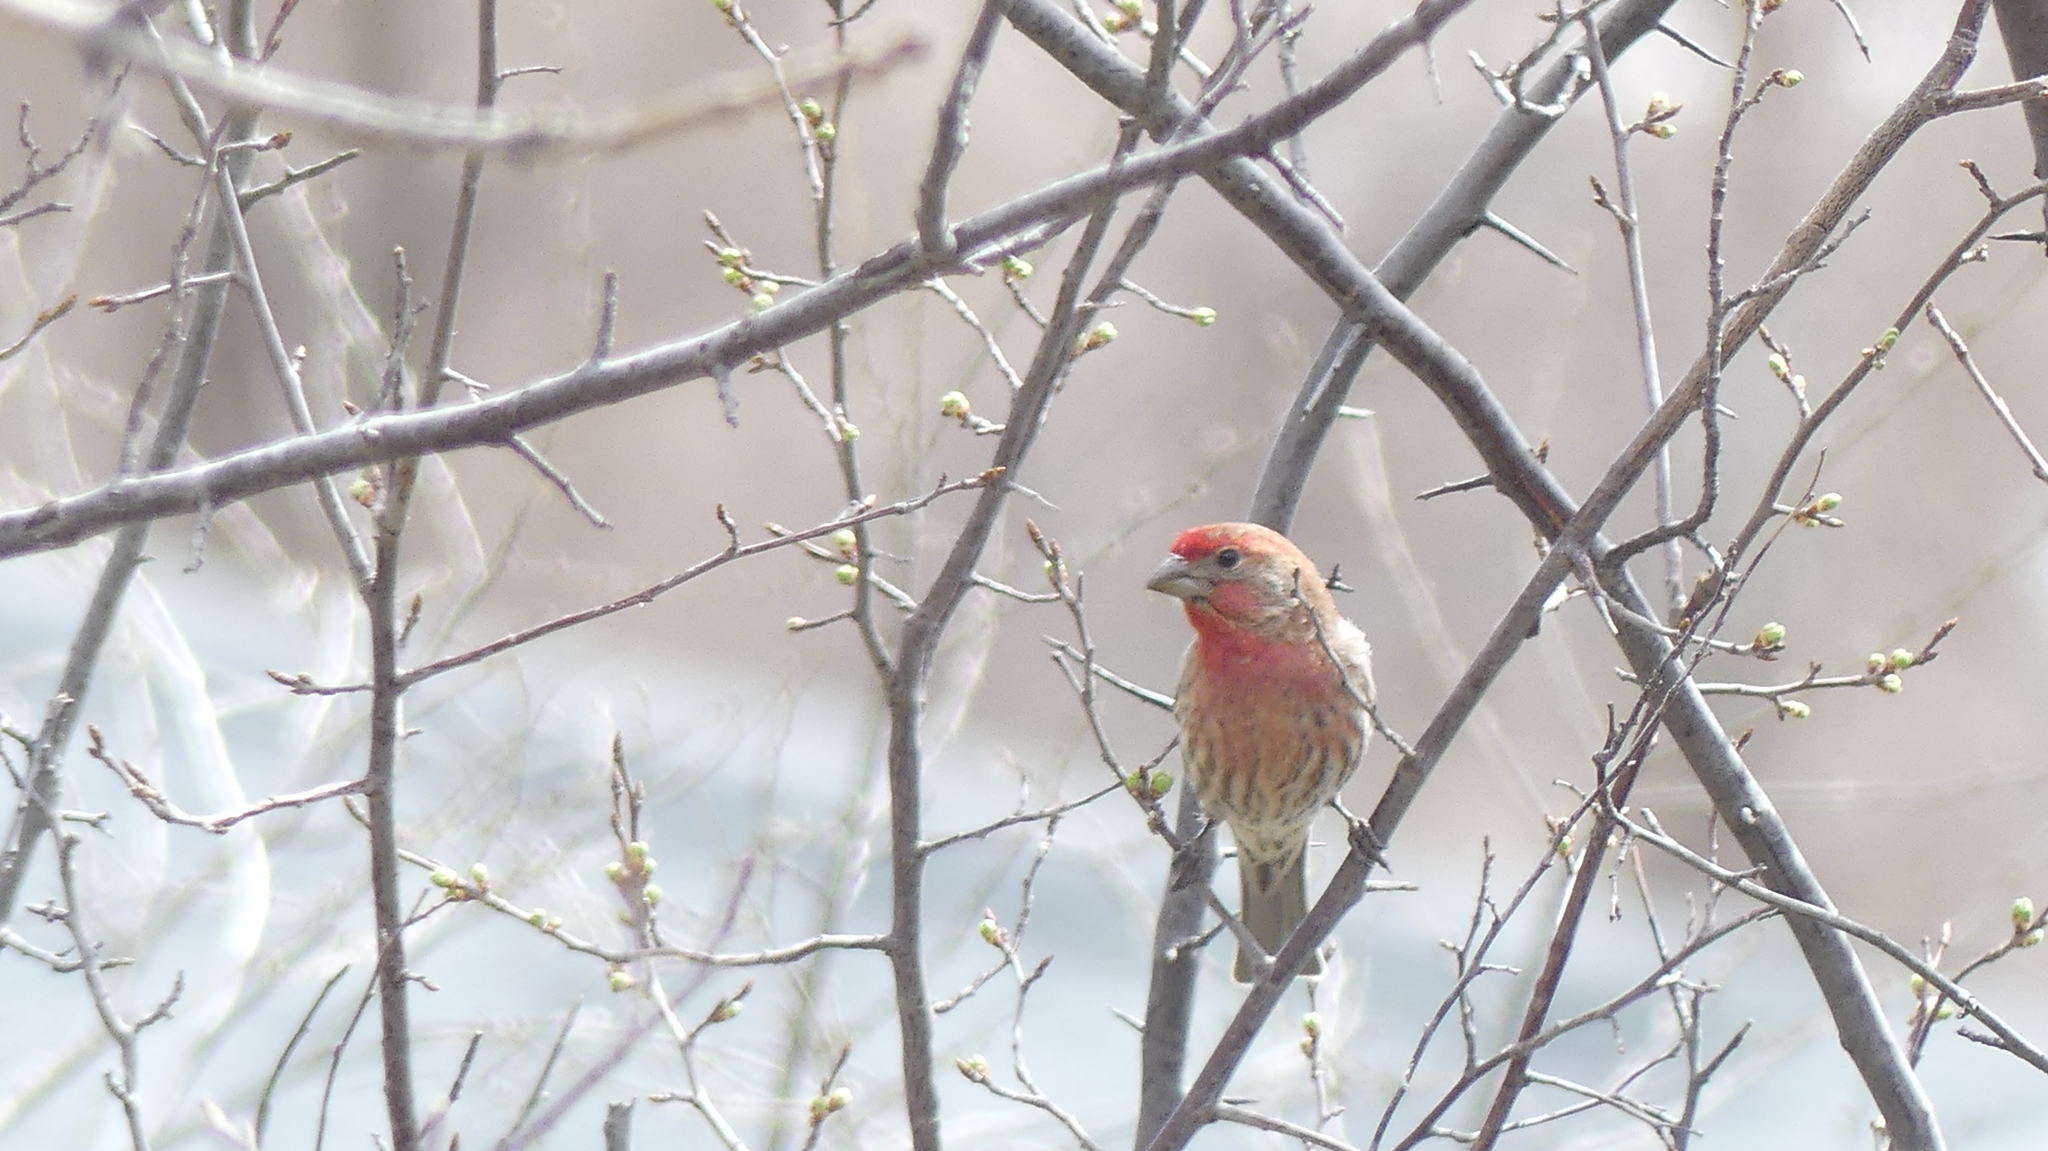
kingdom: Animalia
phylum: Chordata
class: Aves
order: Passeriformes
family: Fringillidae
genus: Haemorhous
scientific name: Haemorhous mexicanus
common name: House finch
